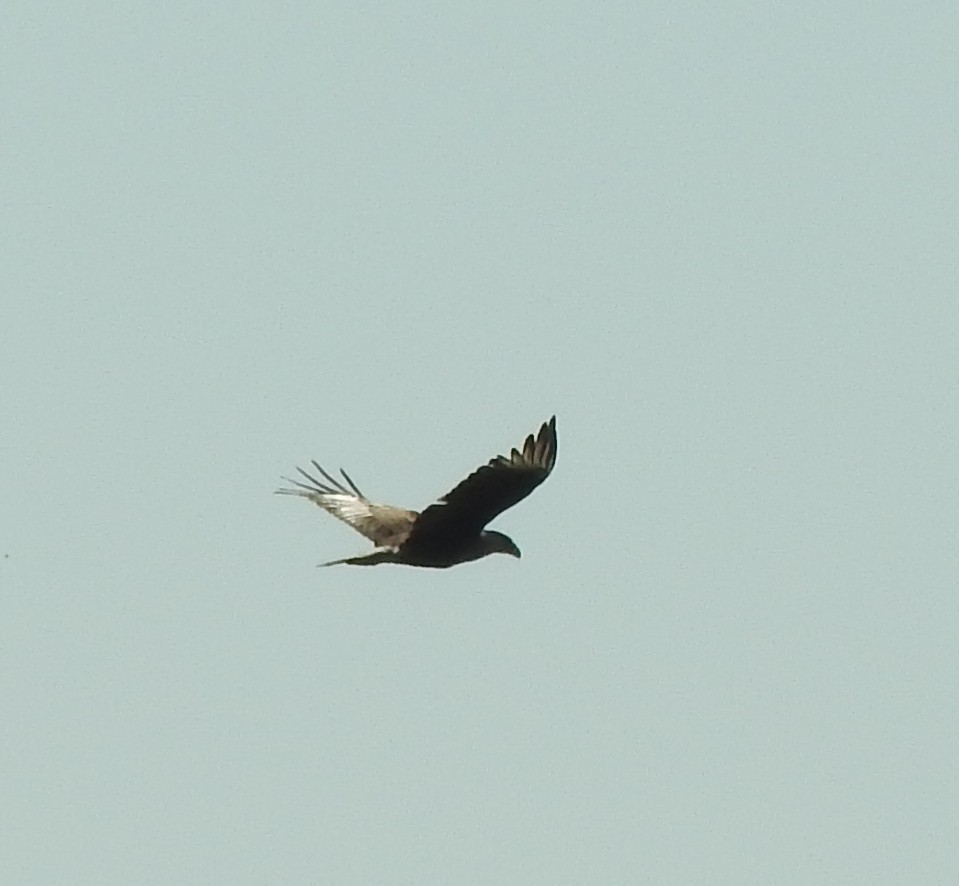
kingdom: Animalia
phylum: Chordata
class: Aves
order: Falconiformes
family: Falconidae
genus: Caracara
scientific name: Caracara plancus
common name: Southern caracara
